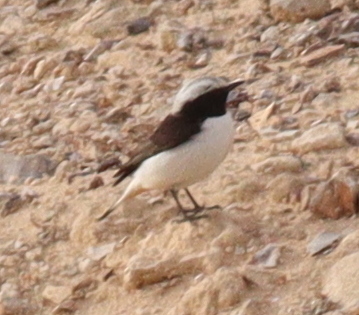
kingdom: Animalia
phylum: Chordata
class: Aves
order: Passeriformes
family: Muscicapidae
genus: Oenanthe
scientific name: Oenanthe lugens
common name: Mourning wheatear
